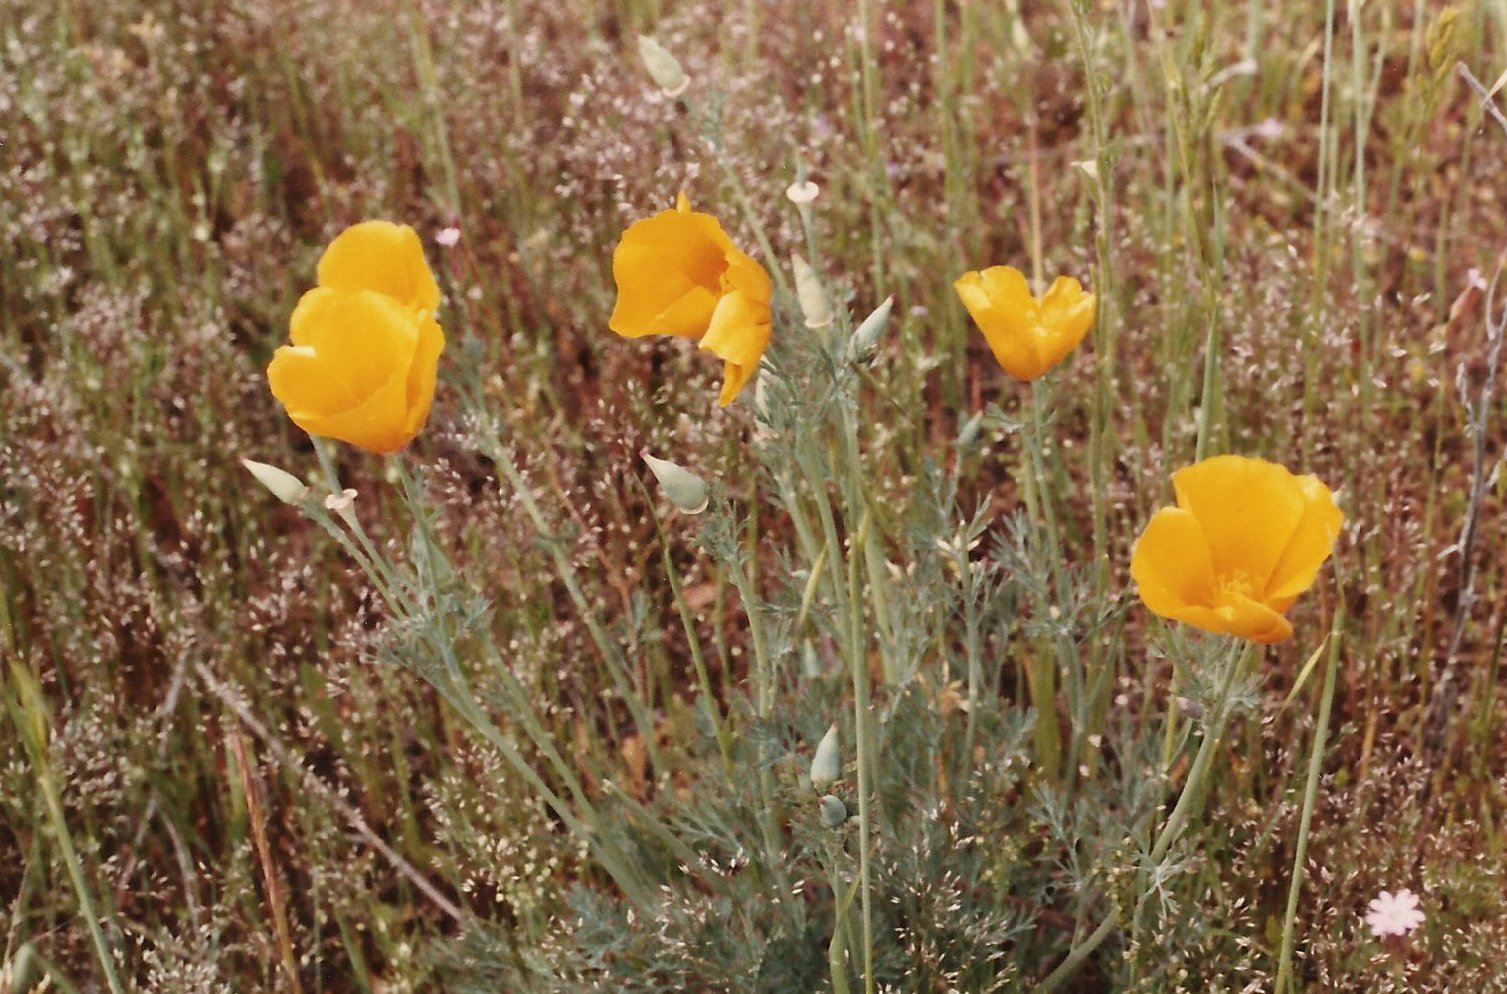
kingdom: Plantae
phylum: Tracheophyta
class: Magnoliopsida
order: Ranunculales
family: Papaveraceae
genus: Eschscholzia
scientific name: Eschscholzia californica
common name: California poppy
